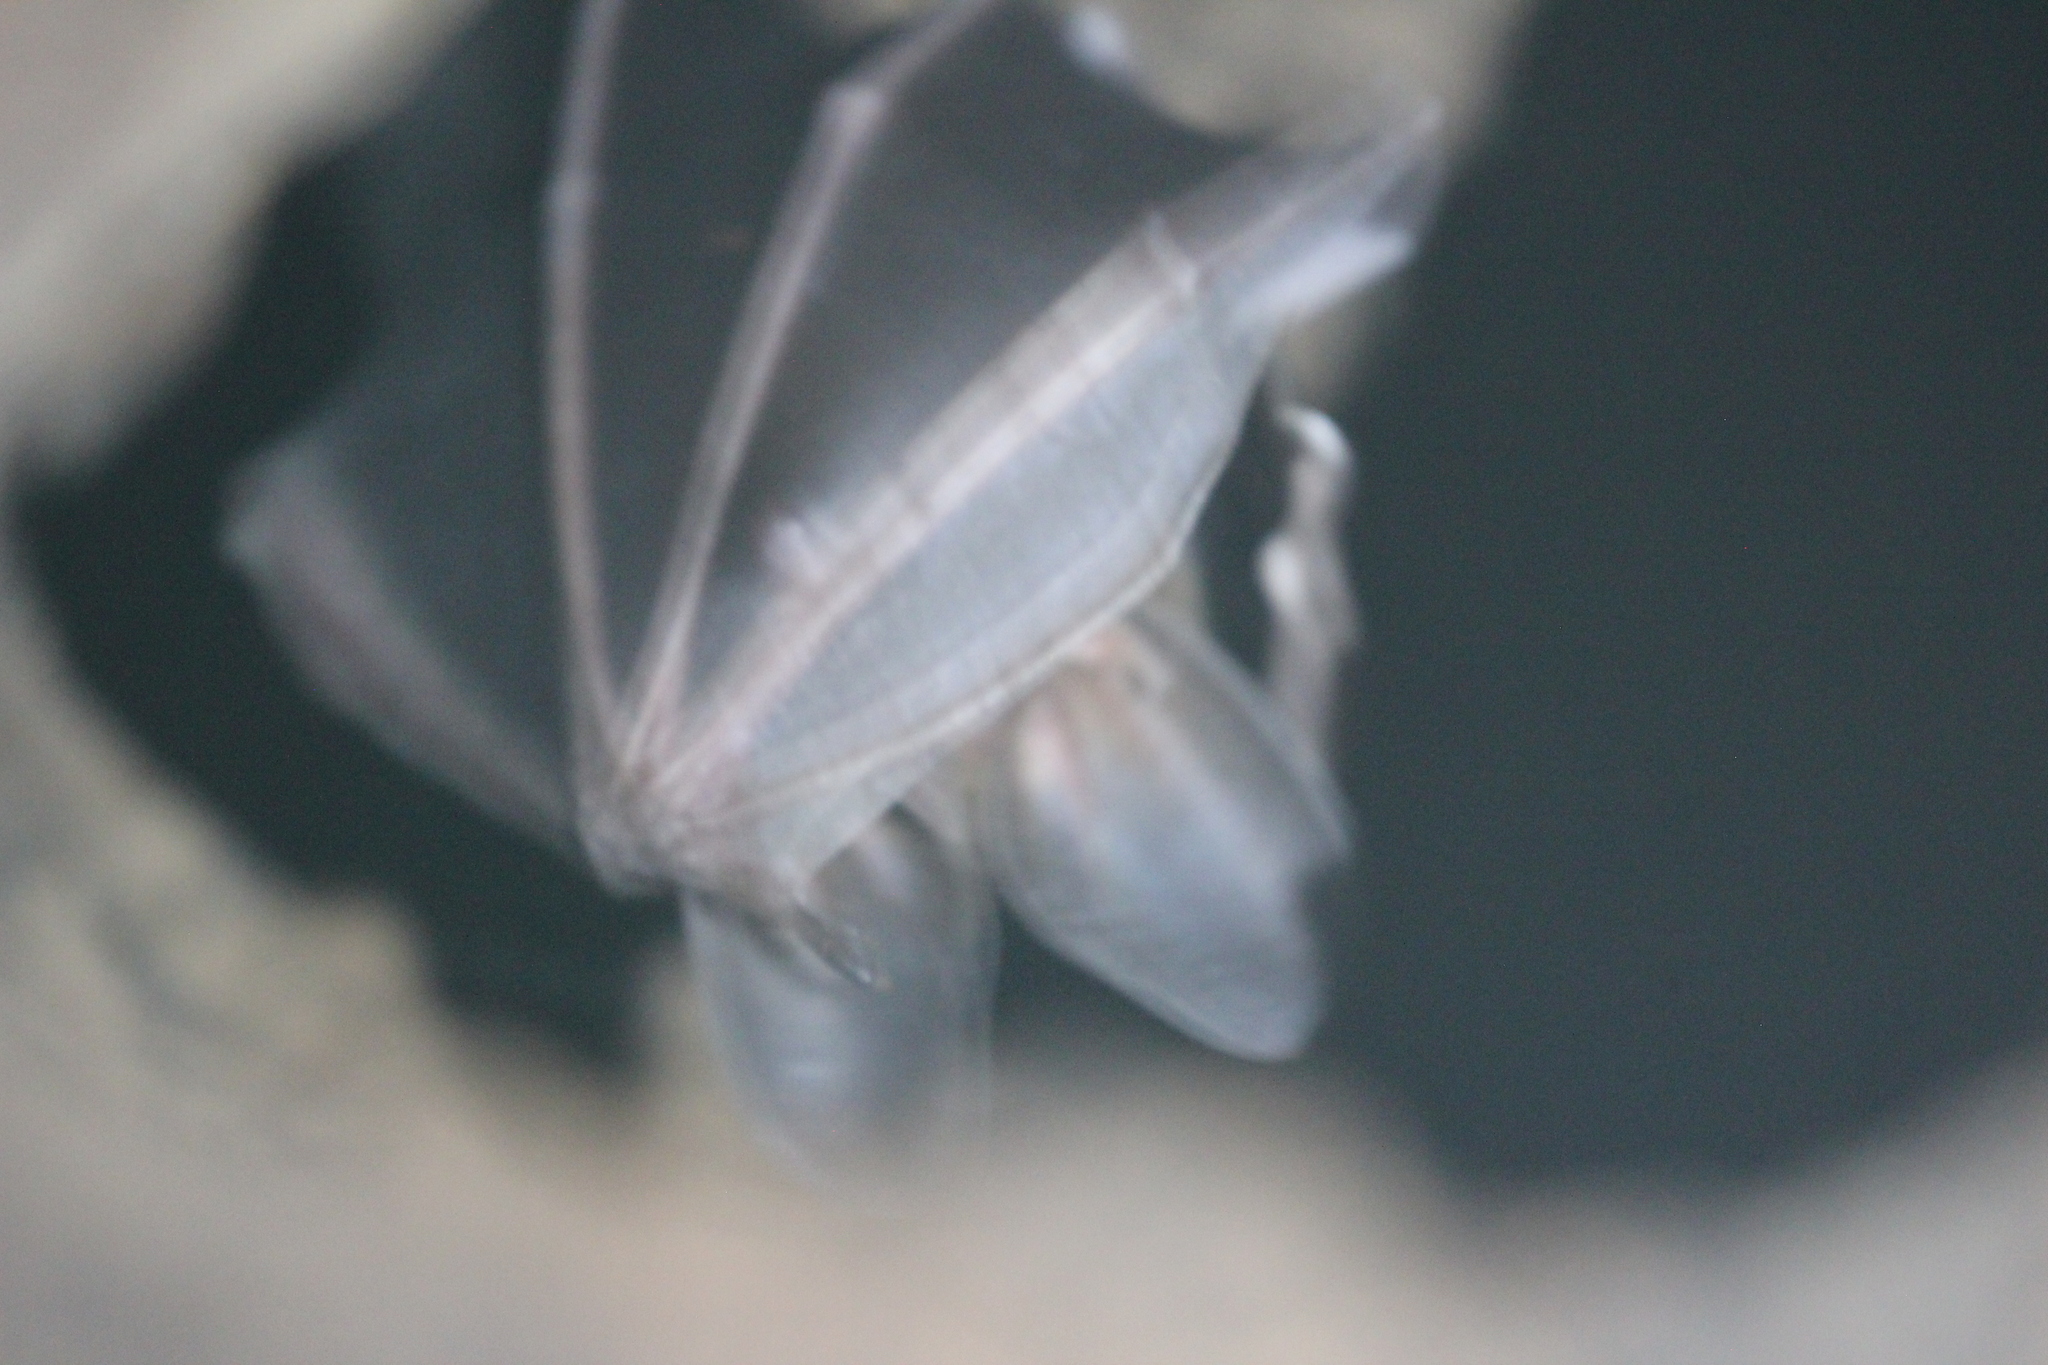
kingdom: Animalia
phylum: Chordata
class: Mammalia
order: Chiroptera
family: Phyllostomidae
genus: Lophostoma
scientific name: Lophostoma silvicola
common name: White-throated round-eared bat
